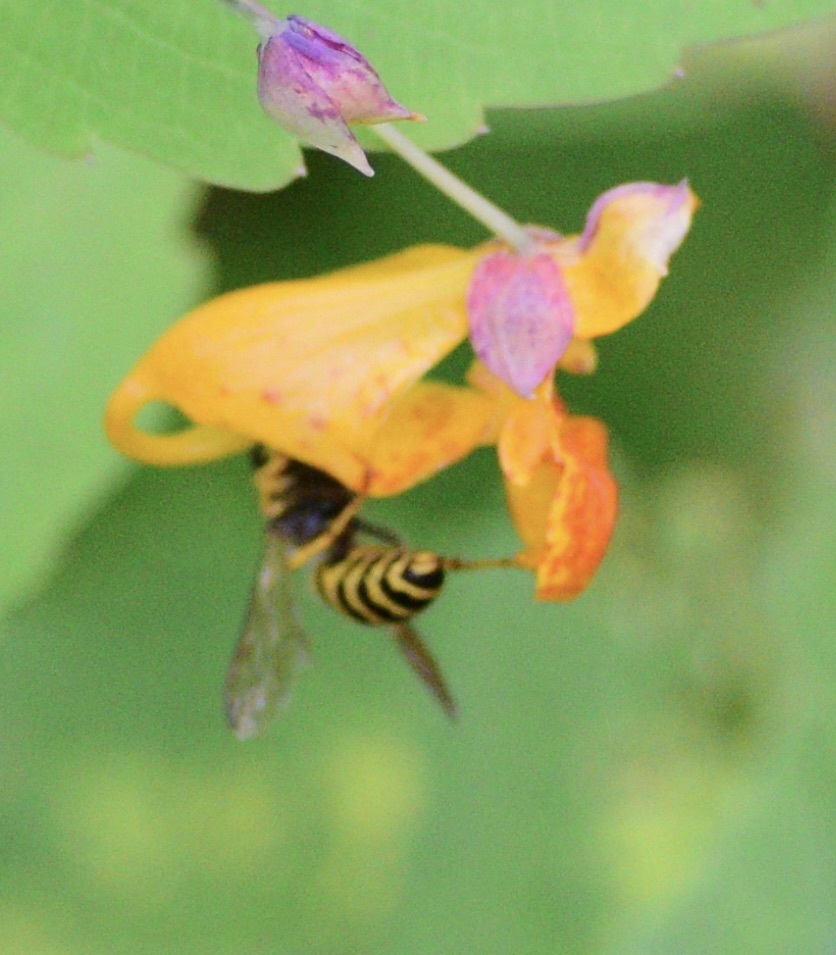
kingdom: Animalia
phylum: Arthropoda
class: Insecta
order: Hymenoptera
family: Vespidae
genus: Vespula
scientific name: Vespula
